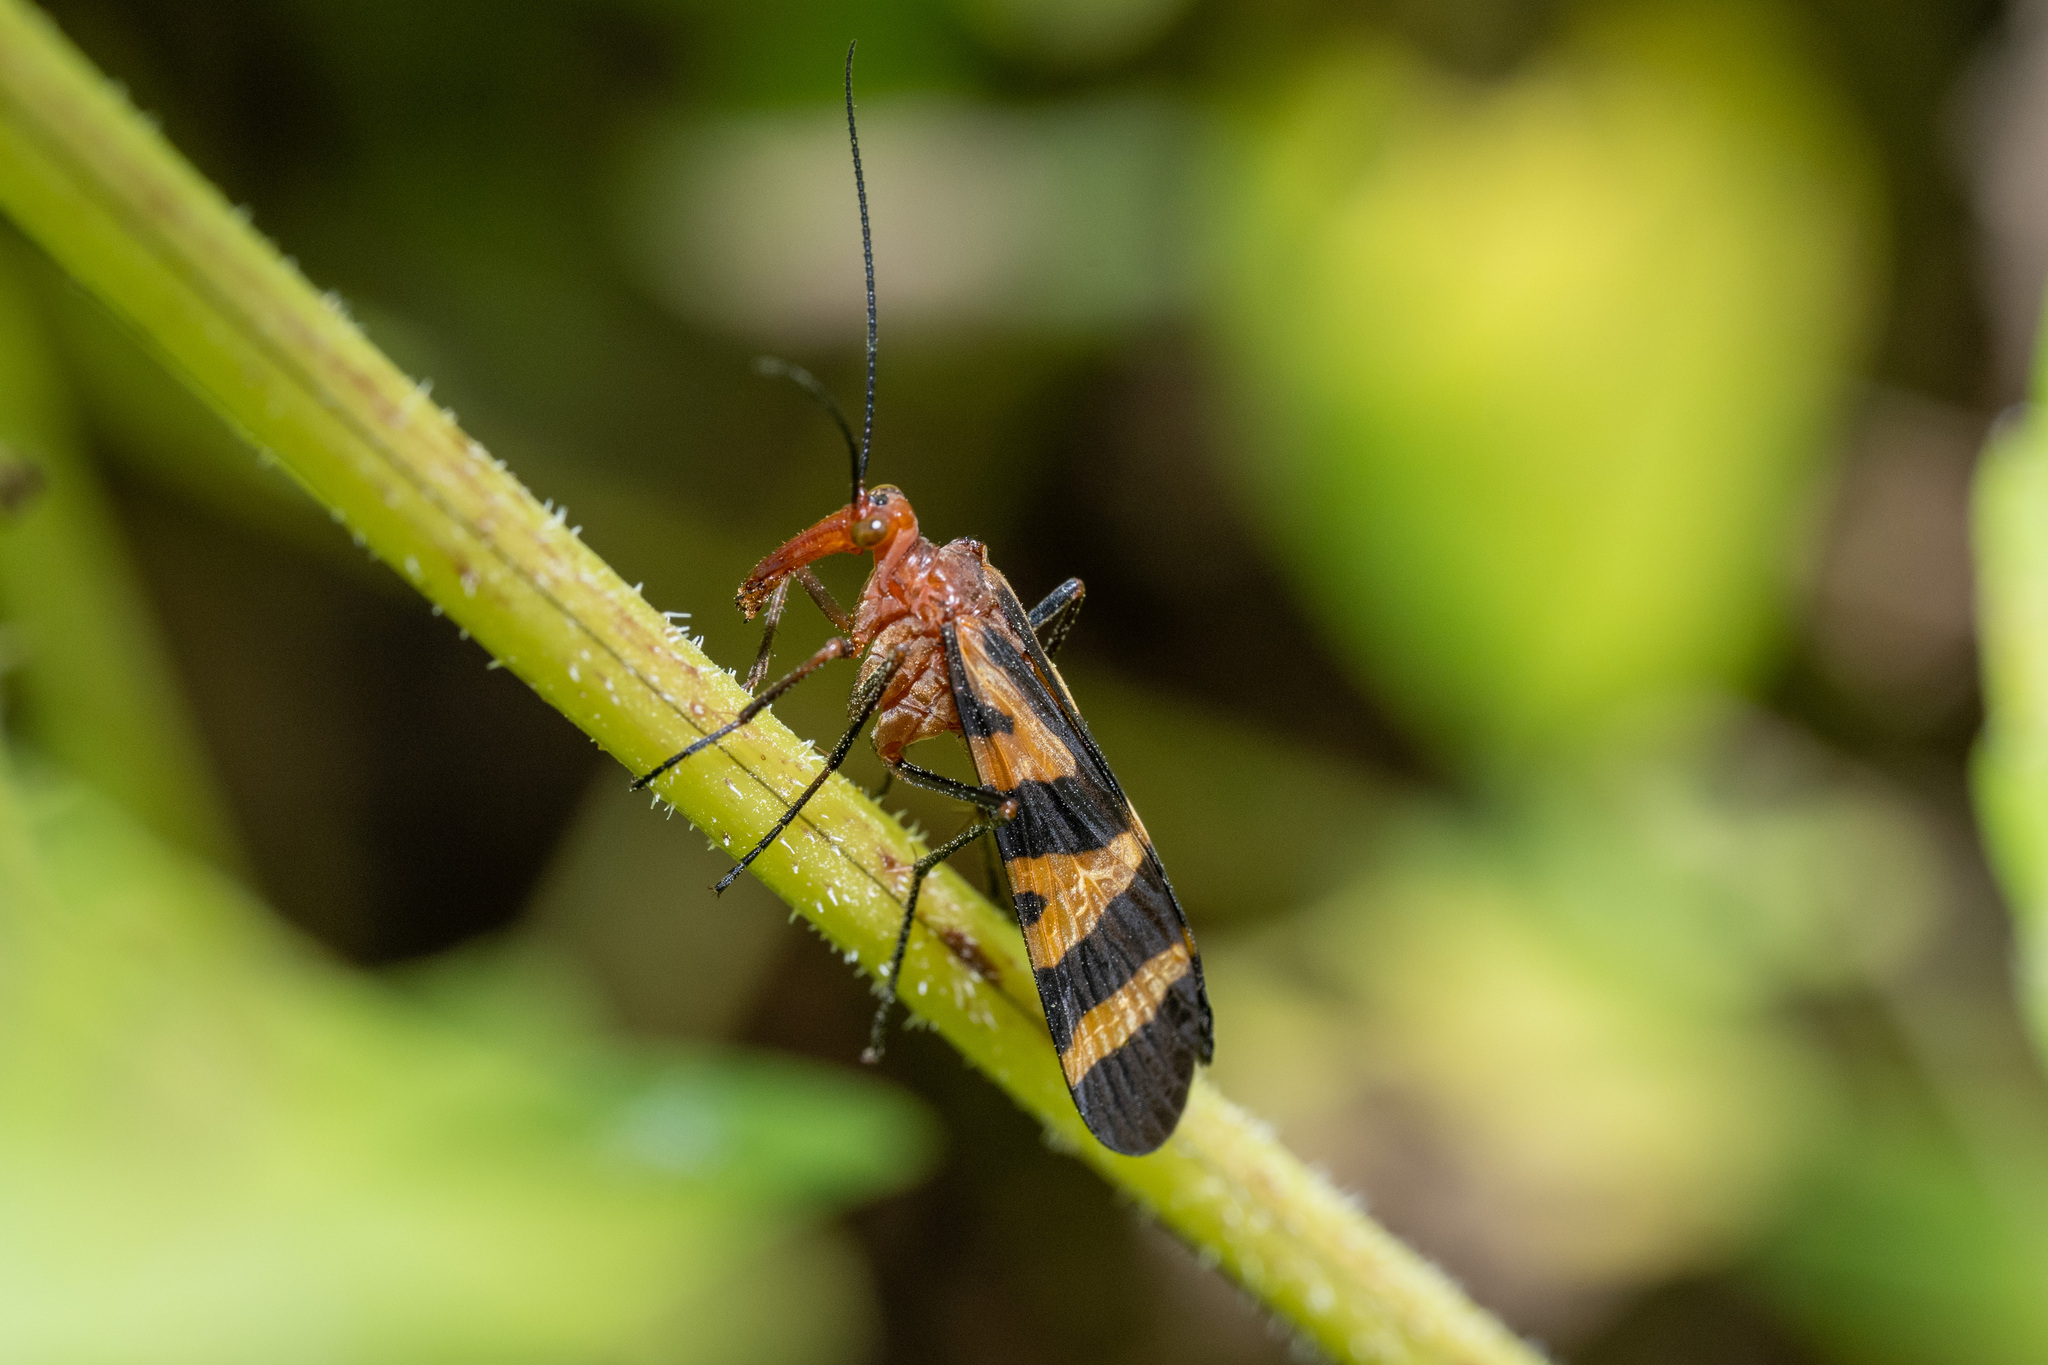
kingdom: Animalia
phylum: Arthropoda
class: Insecta
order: Mecoptera
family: Panorpidae
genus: Panorpa
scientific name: Panorpa nuptialis
